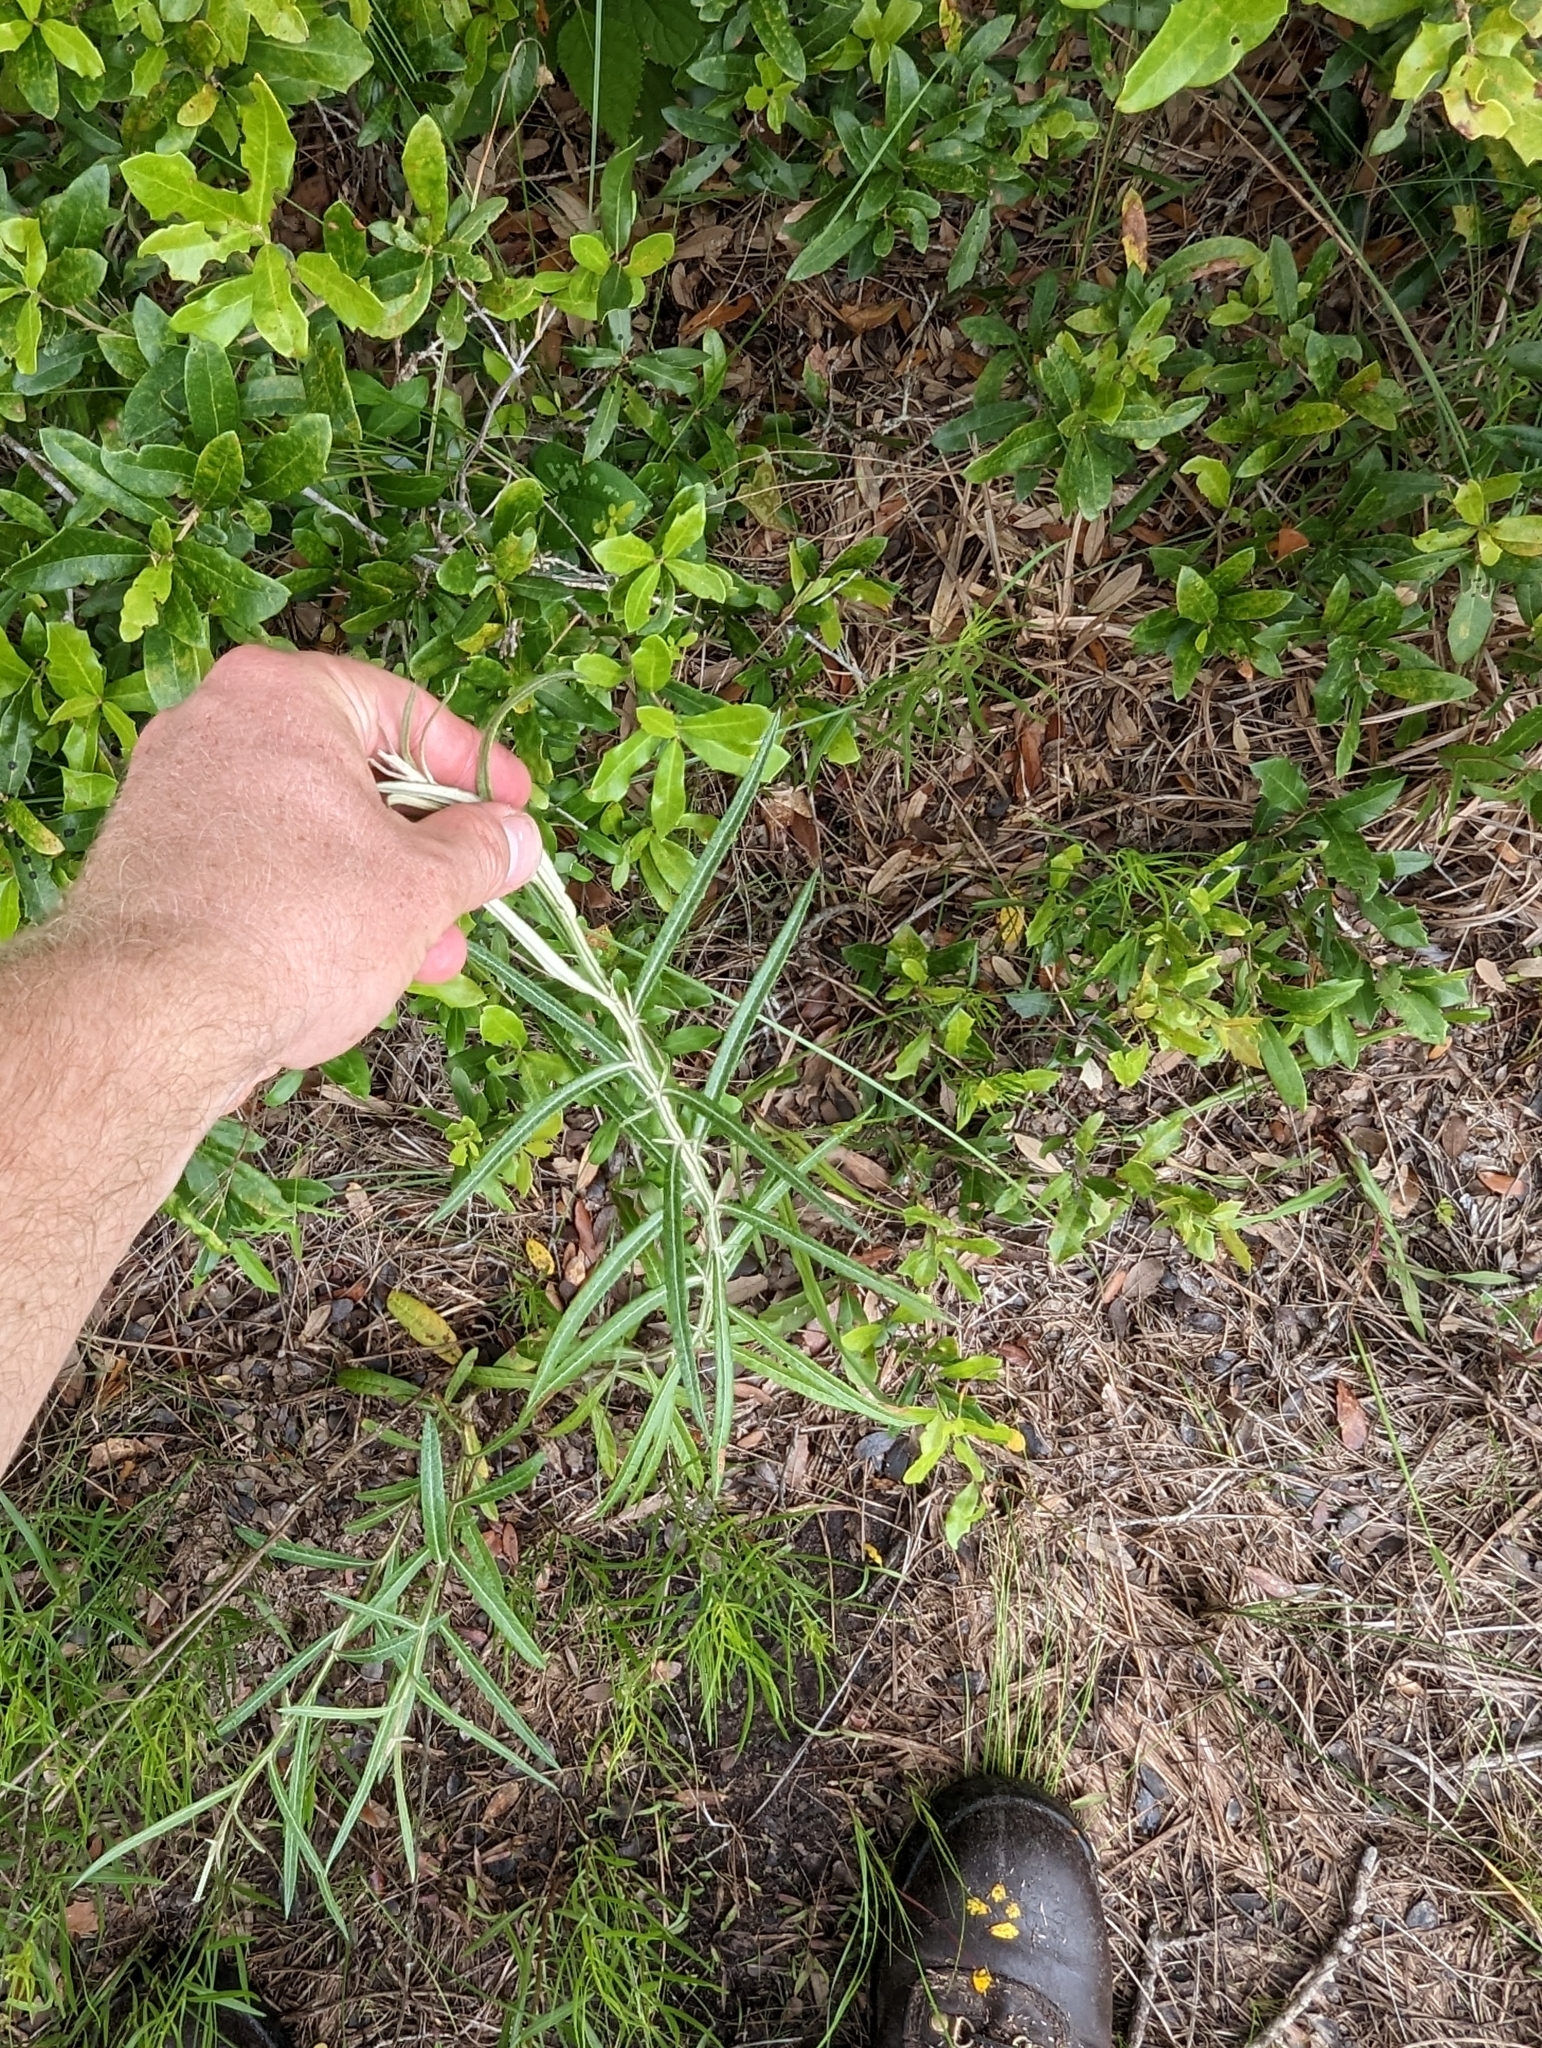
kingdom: Plantae
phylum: Tracheophyta
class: Magnoliopsida
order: Asterales
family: Asteraceae
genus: Pterocaulon
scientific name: Pterocaulon virgatum
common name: Wand blackroot
